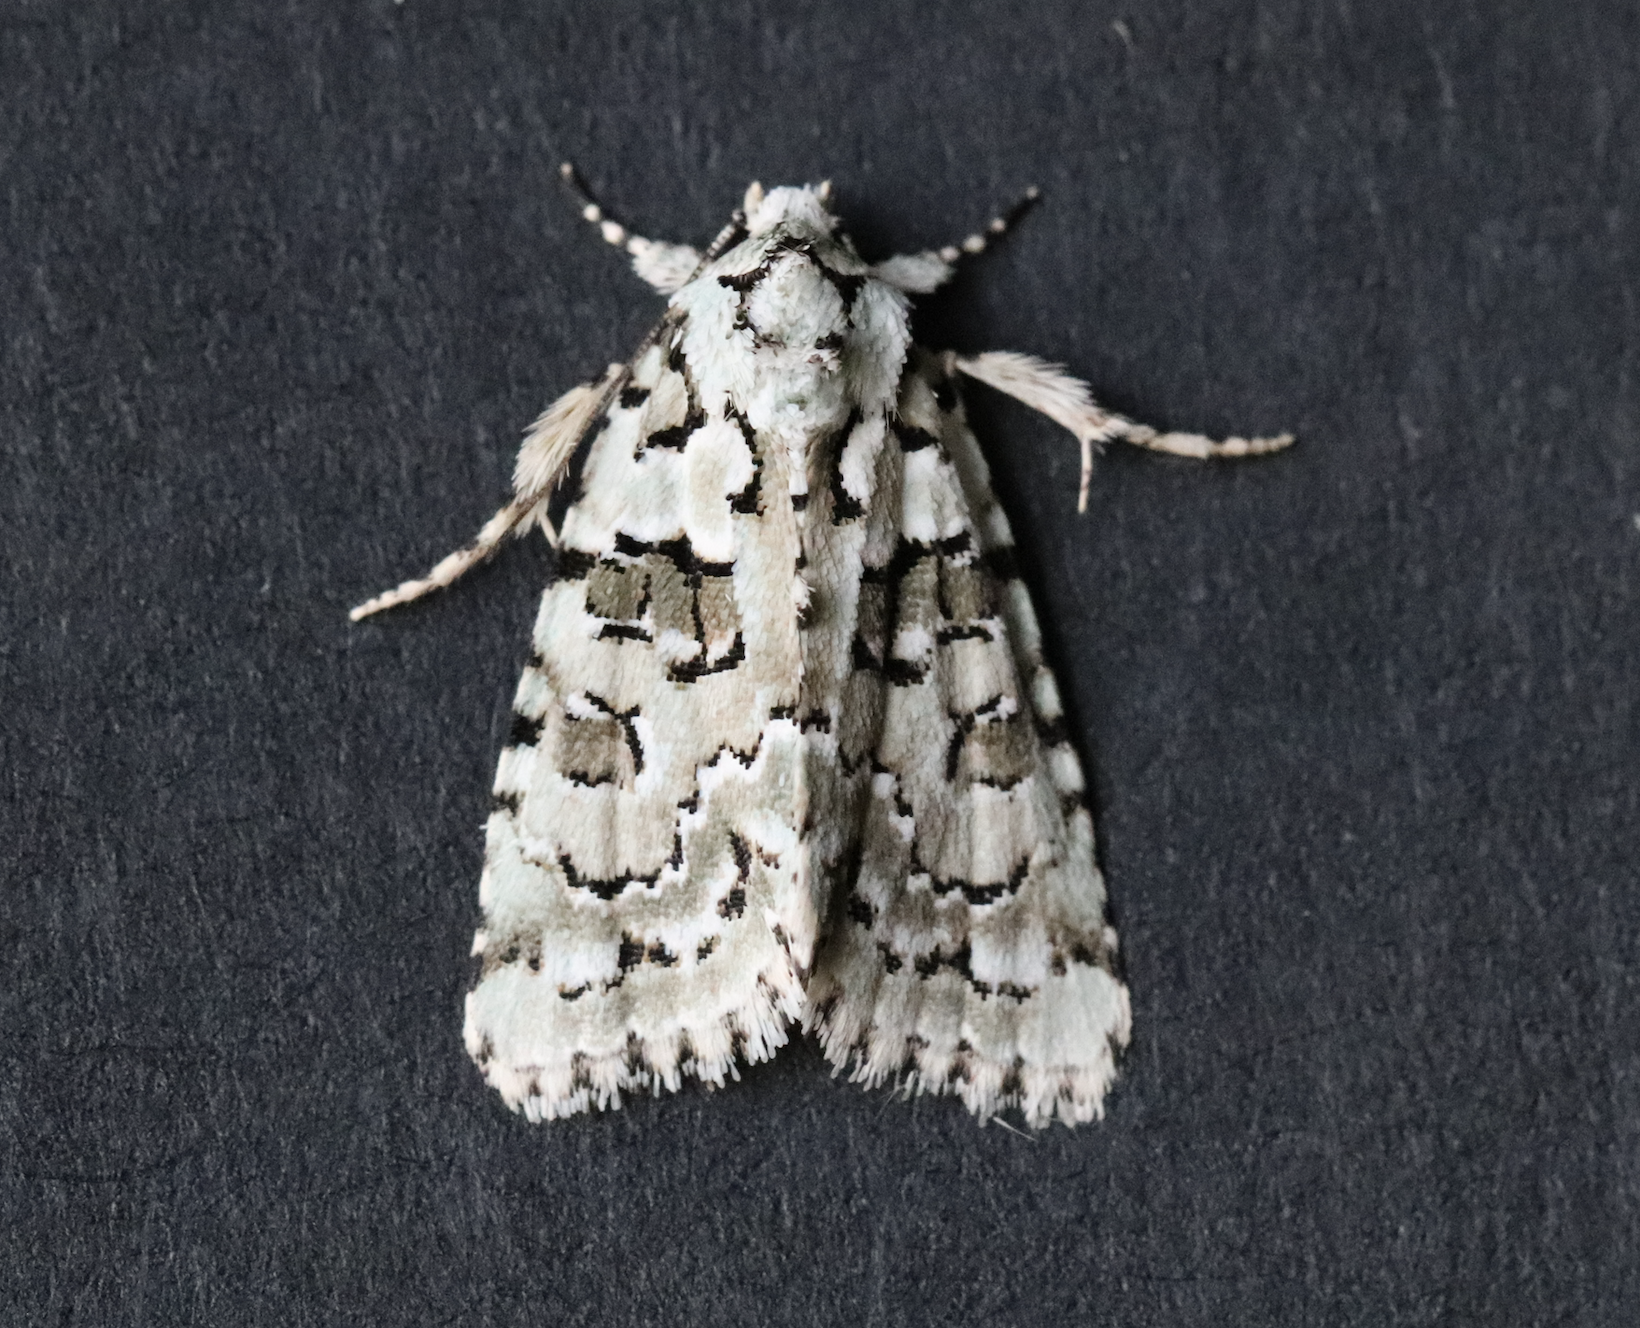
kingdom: Animalia
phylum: Arthropoda
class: Insecta
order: Lepidoptera
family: Noctuidae
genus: Nyctobrya
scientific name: Nyctobrya muralis
